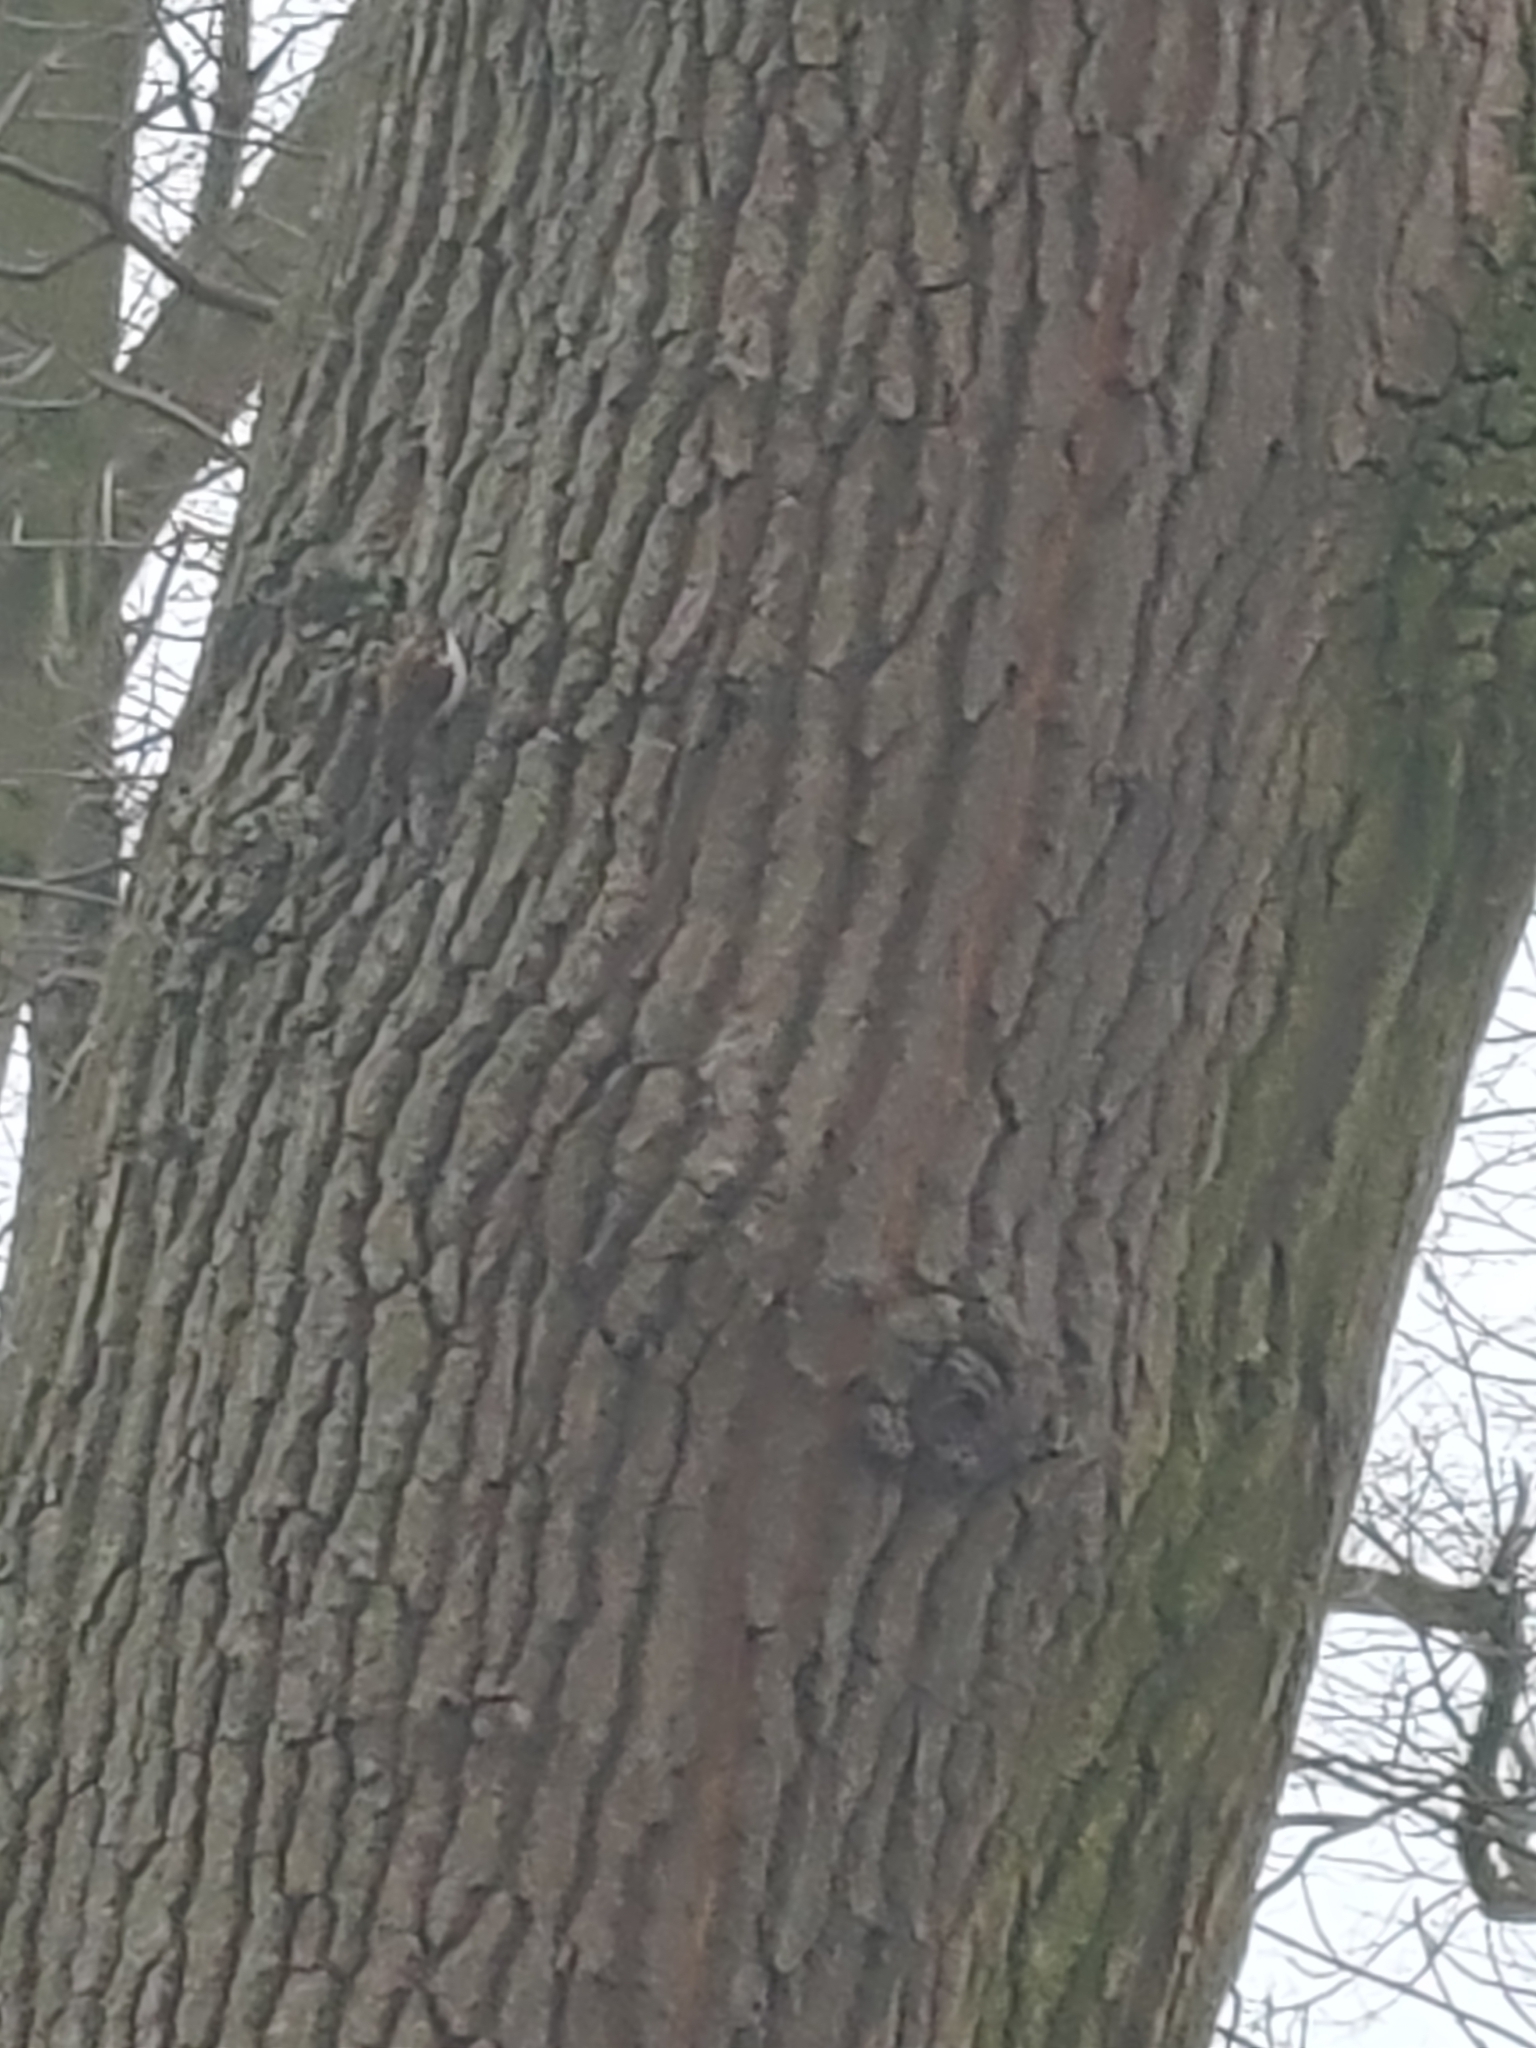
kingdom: Animalia
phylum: Chordata
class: Aves
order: Passeriformes
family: Certhiidae
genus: Certhia
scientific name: Certhia familiaris
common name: Eurasian treecreeper
